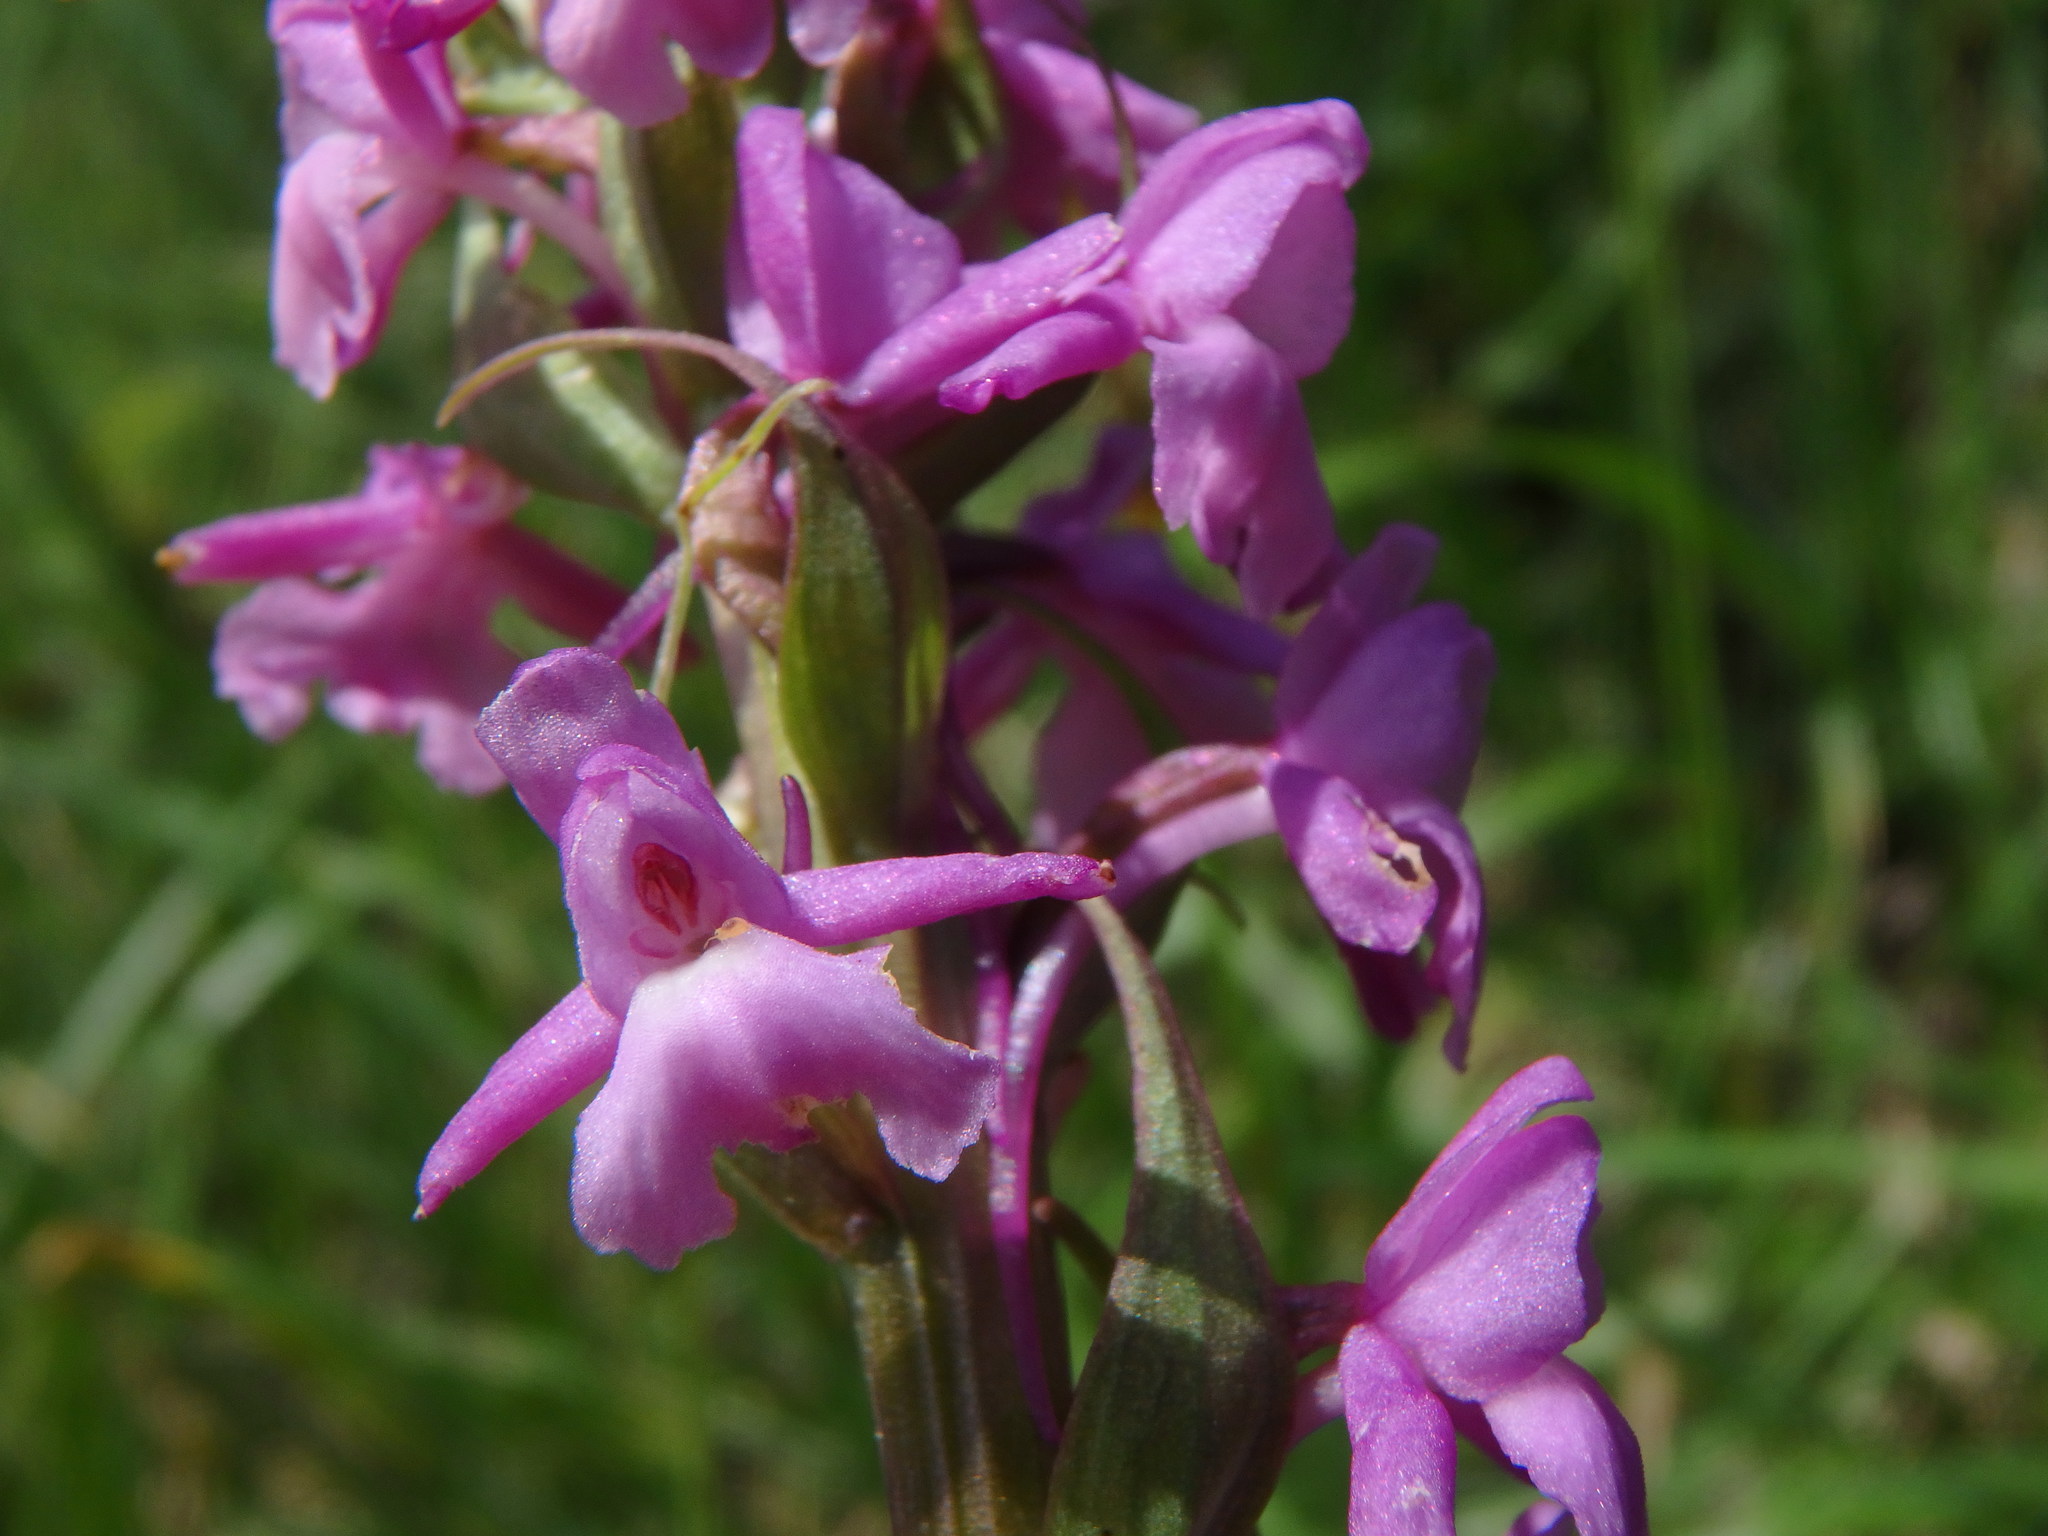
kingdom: Plantae
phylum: Tracheophyta
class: Liliopsida
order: Asparagales
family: Orchidaceae
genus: Gymnadenia
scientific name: Gymnadenia conopsea
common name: Fragrant orchid
